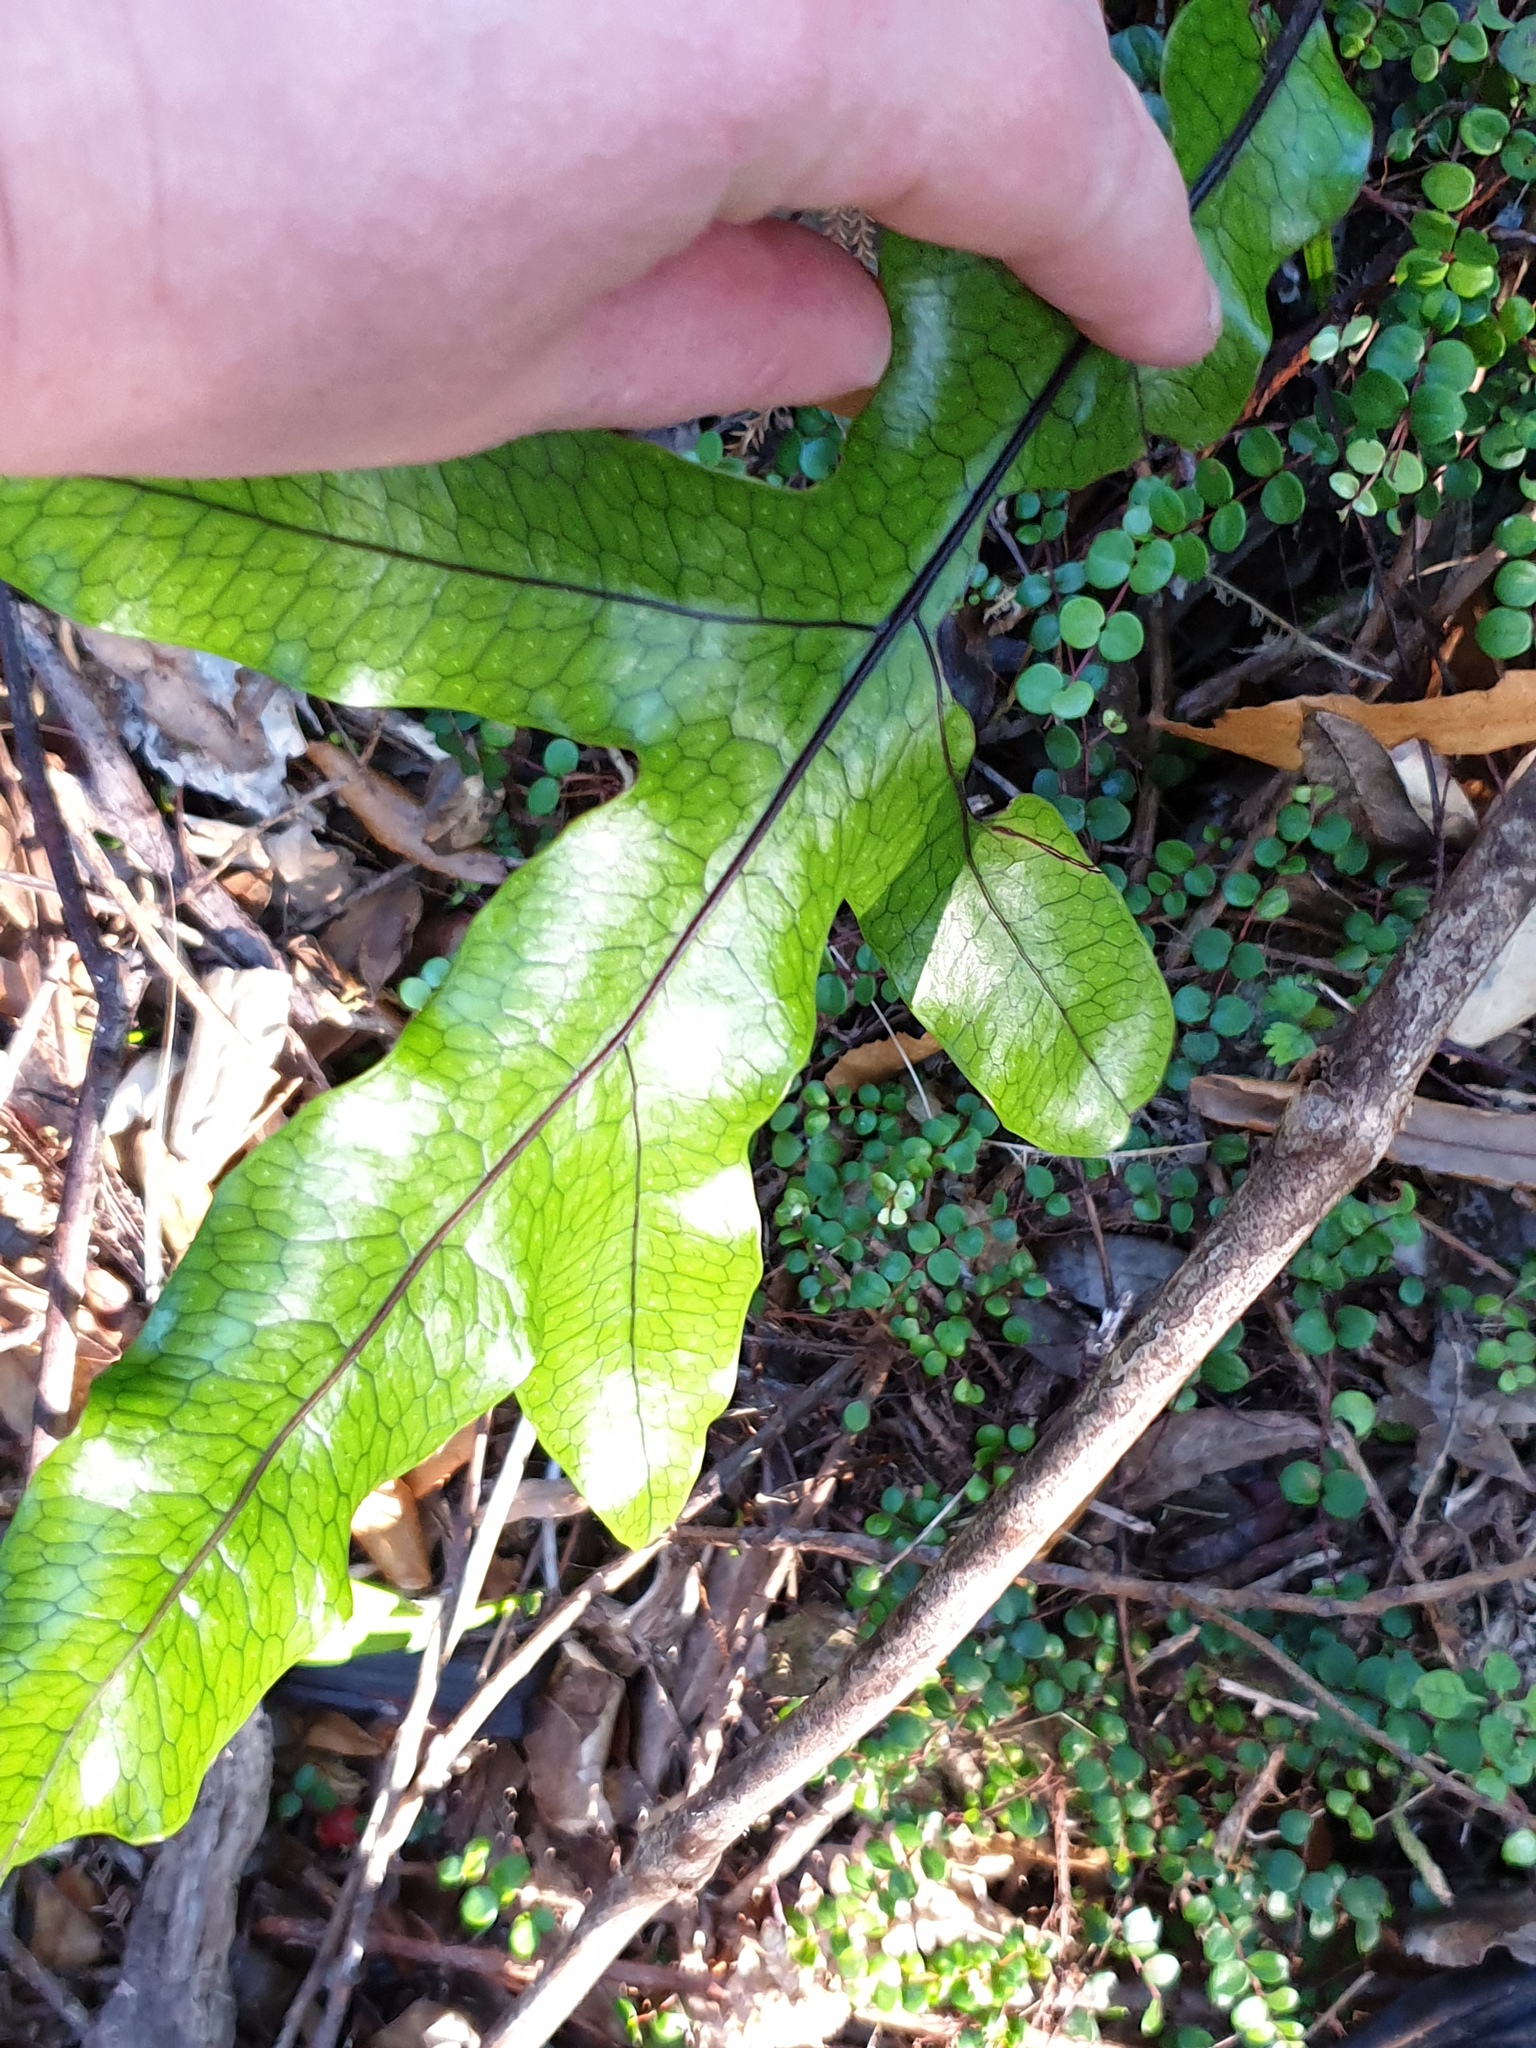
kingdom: Plantae
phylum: Tracheophyta
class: Polypodiopsida
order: Polypodiales
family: Polypodiaceae
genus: Lecanopteris
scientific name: Lecanopteris pustulata
